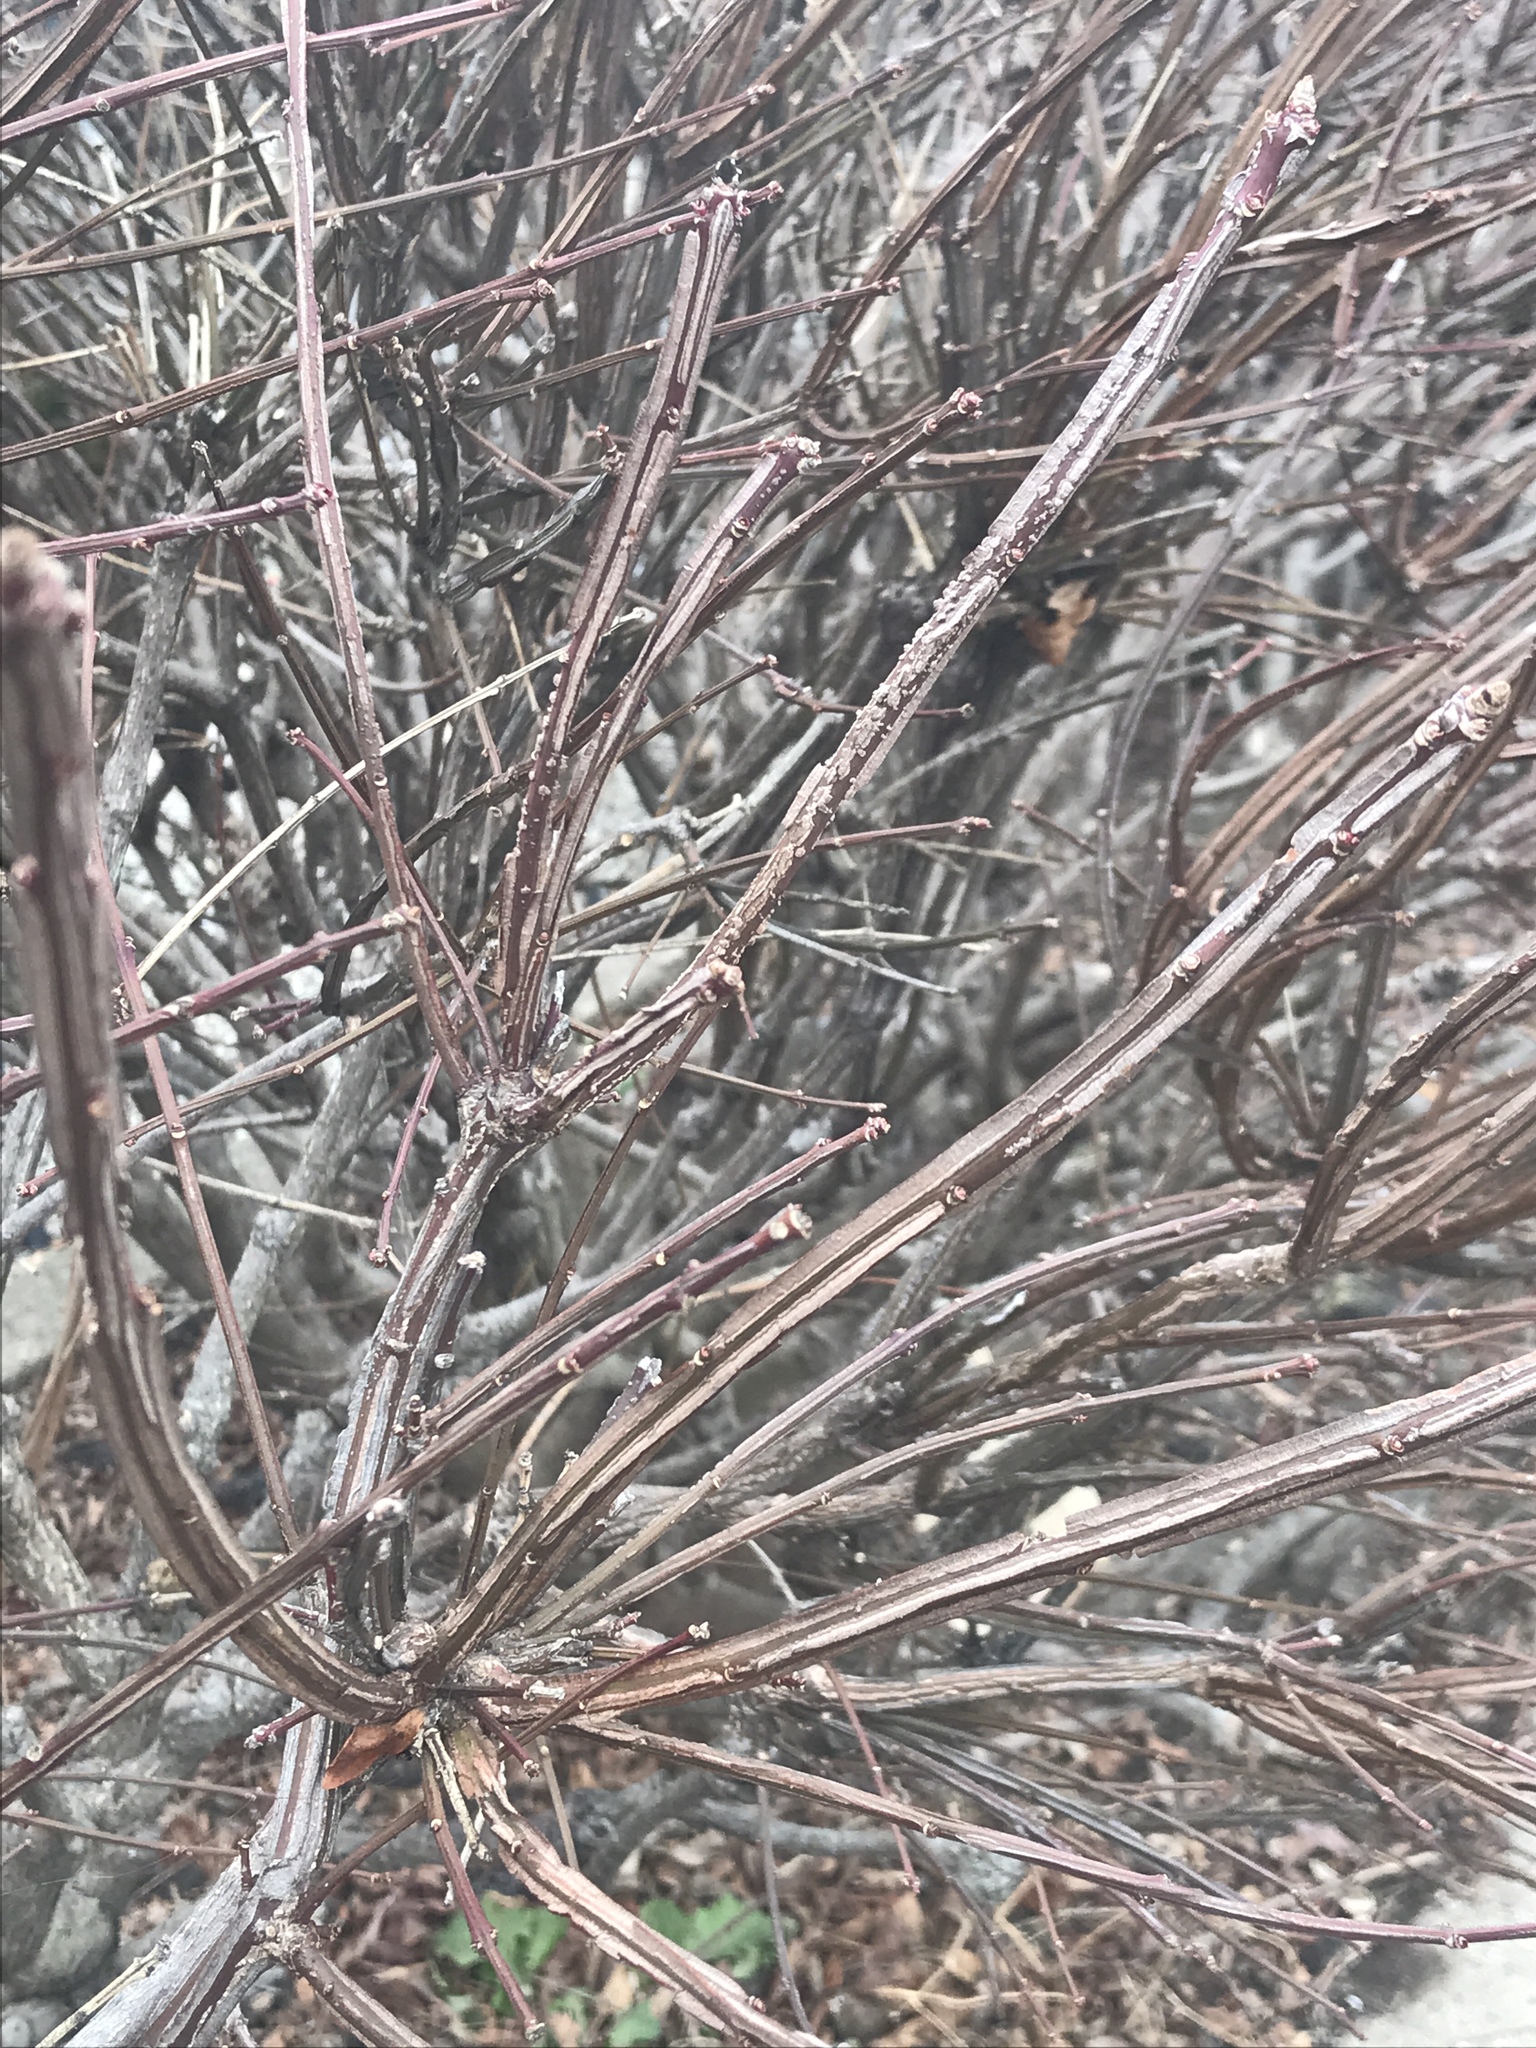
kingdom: Plantae
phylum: Tracheophyta
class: Magnoliopsida
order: Celastrales
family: Celastraceae
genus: Euonymus
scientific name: Euonymus alatus
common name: Winged euonymus
